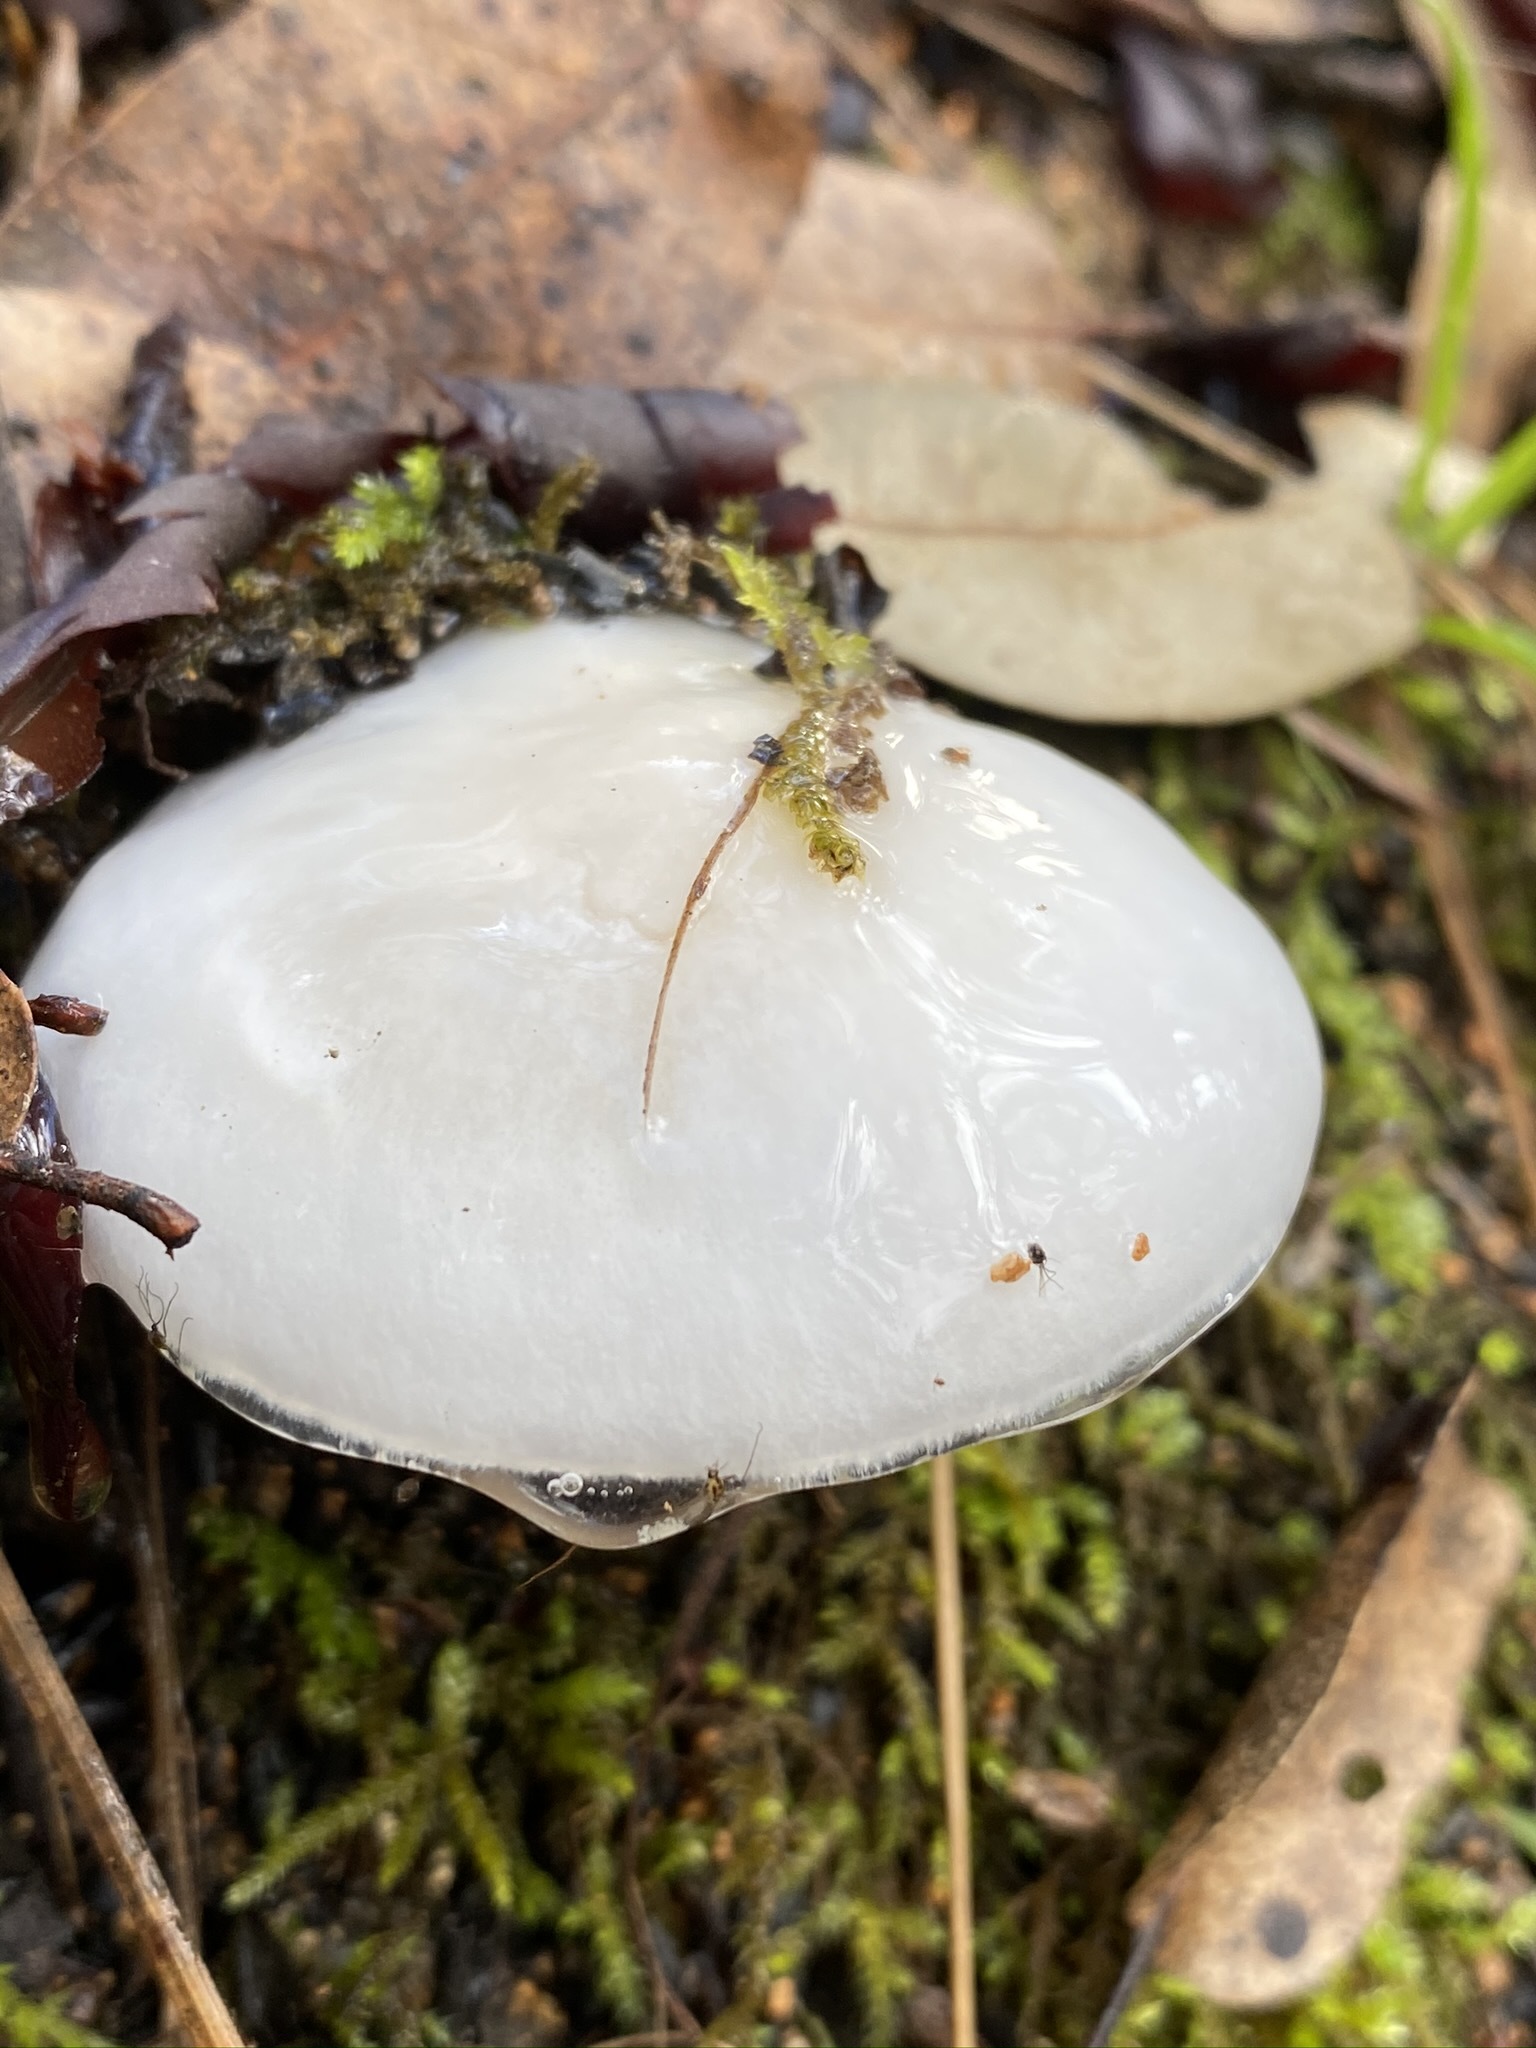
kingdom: Fungi
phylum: Basidiomycota
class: Agaricomycetes
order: Agaricales
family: Hygrophoraceae
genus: Hygrophorus
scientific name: Hygrophorus eburneus
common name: Ivory wax-cap
